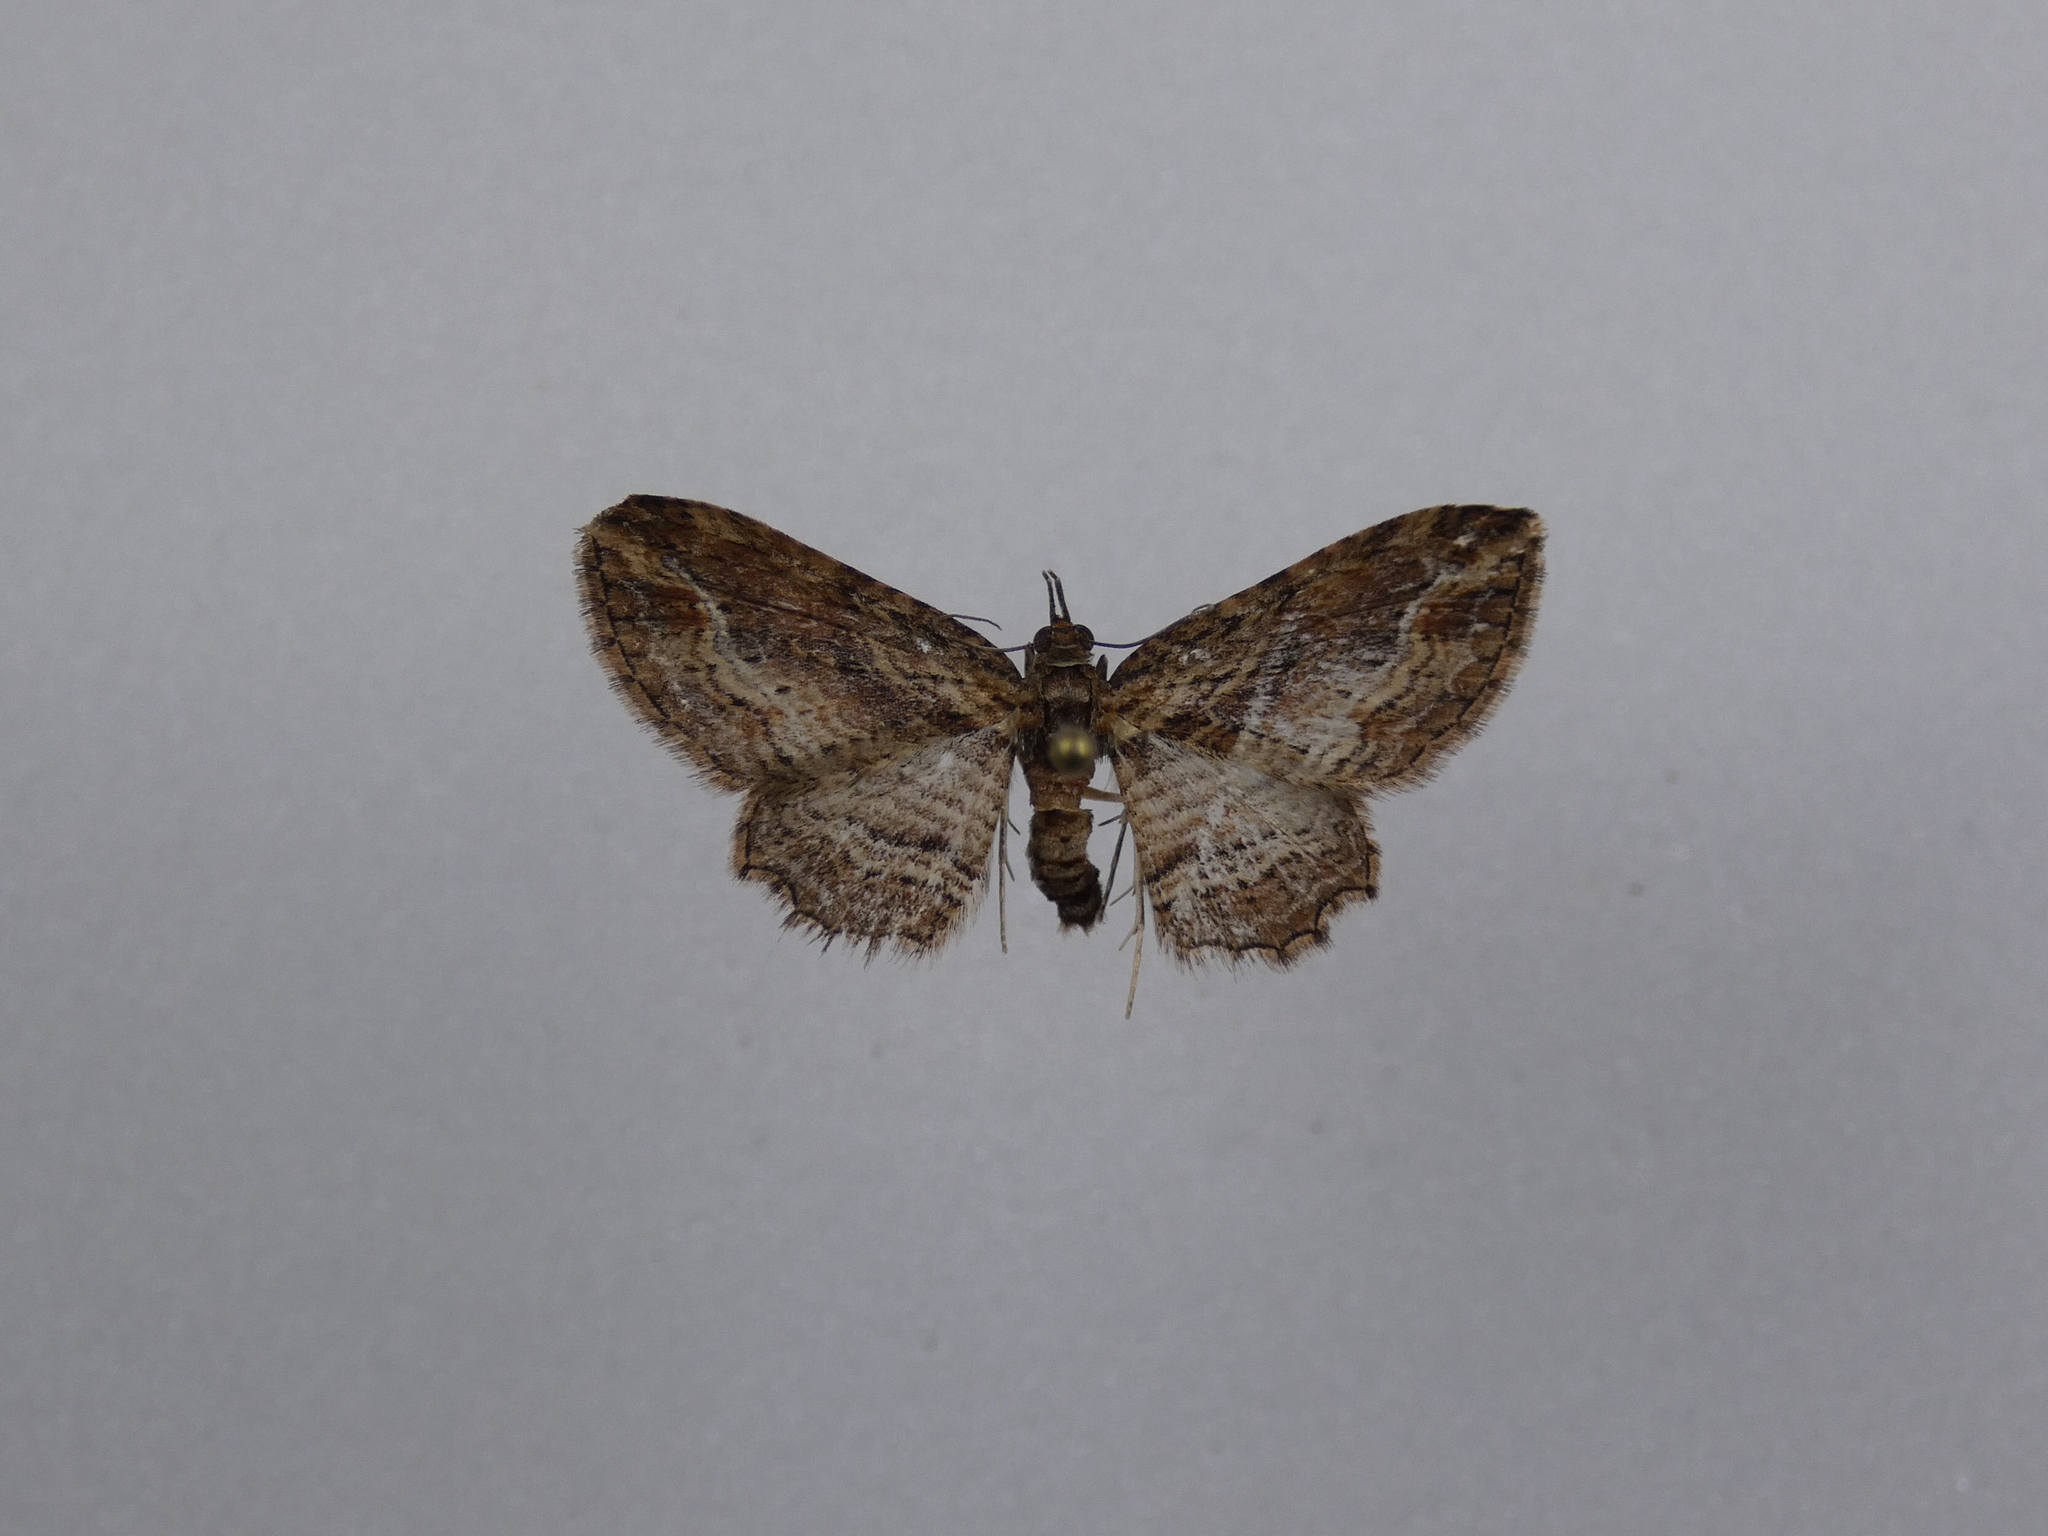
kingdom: Animalia
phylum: Arthropoda
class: Insecta
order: Lepidoptera
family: Geometridae
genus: Chloroclystis
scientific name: Chloroclystis filata
